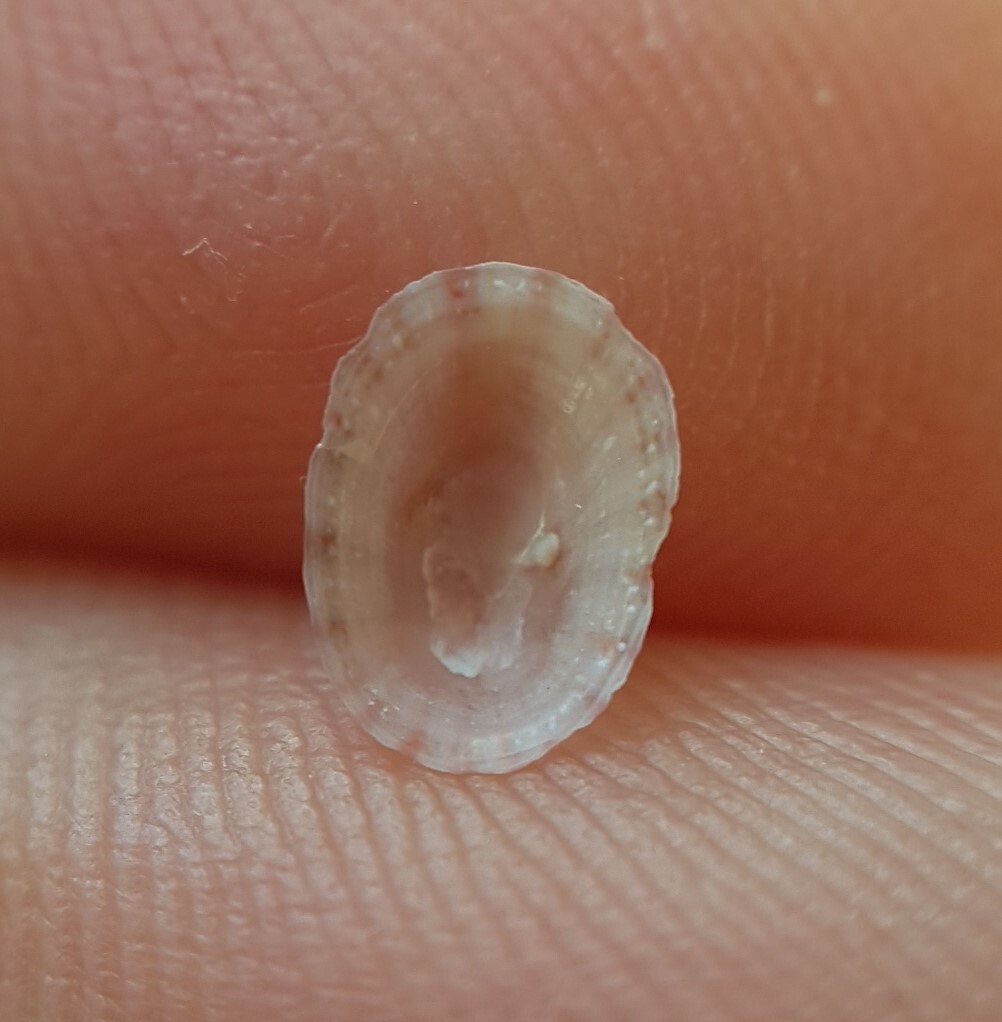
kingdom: Animalia
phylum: Mollusca
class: Gastropoda
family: Lottiidae
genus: Tectura
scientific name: Tectura virginea
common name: White tortoiseshell limpet
